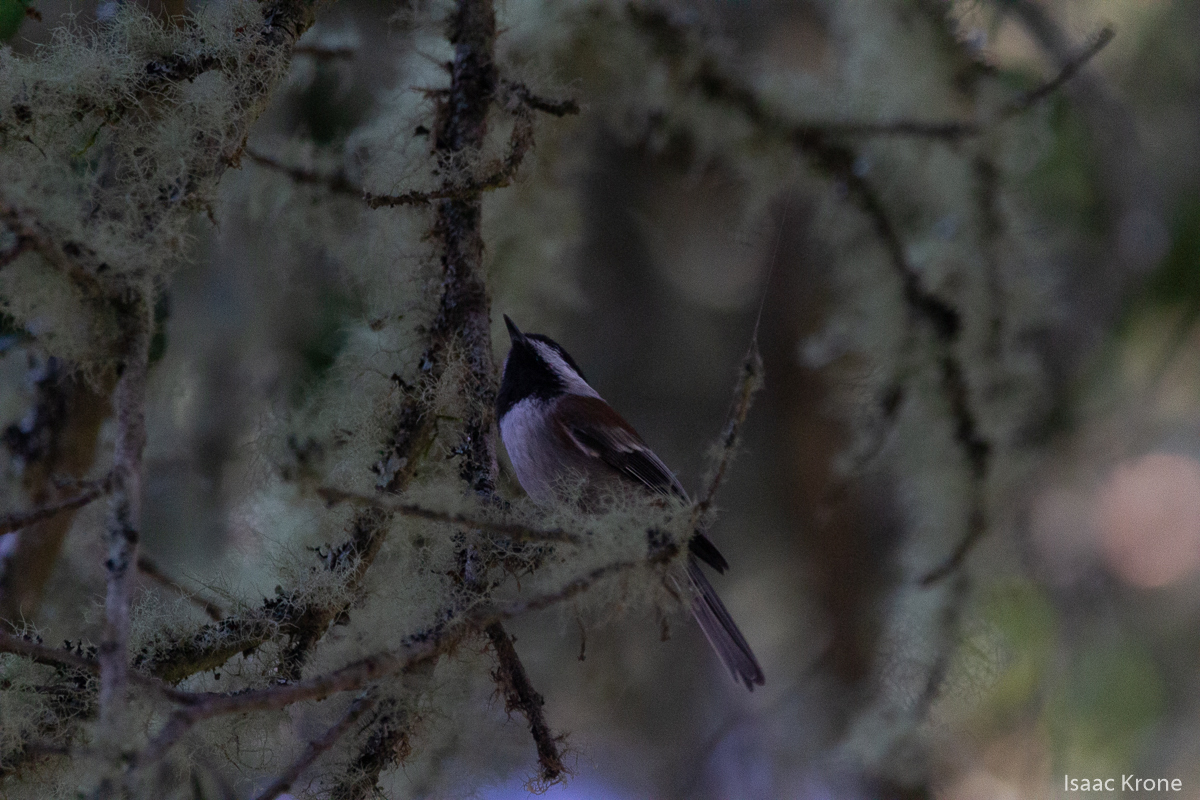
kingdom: Animalia
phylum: Chordata
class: Aves
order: Passeriformes
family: Paridae
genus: Poecile
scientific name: Poecile rufescens
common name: Chestnut-backed chickadee
